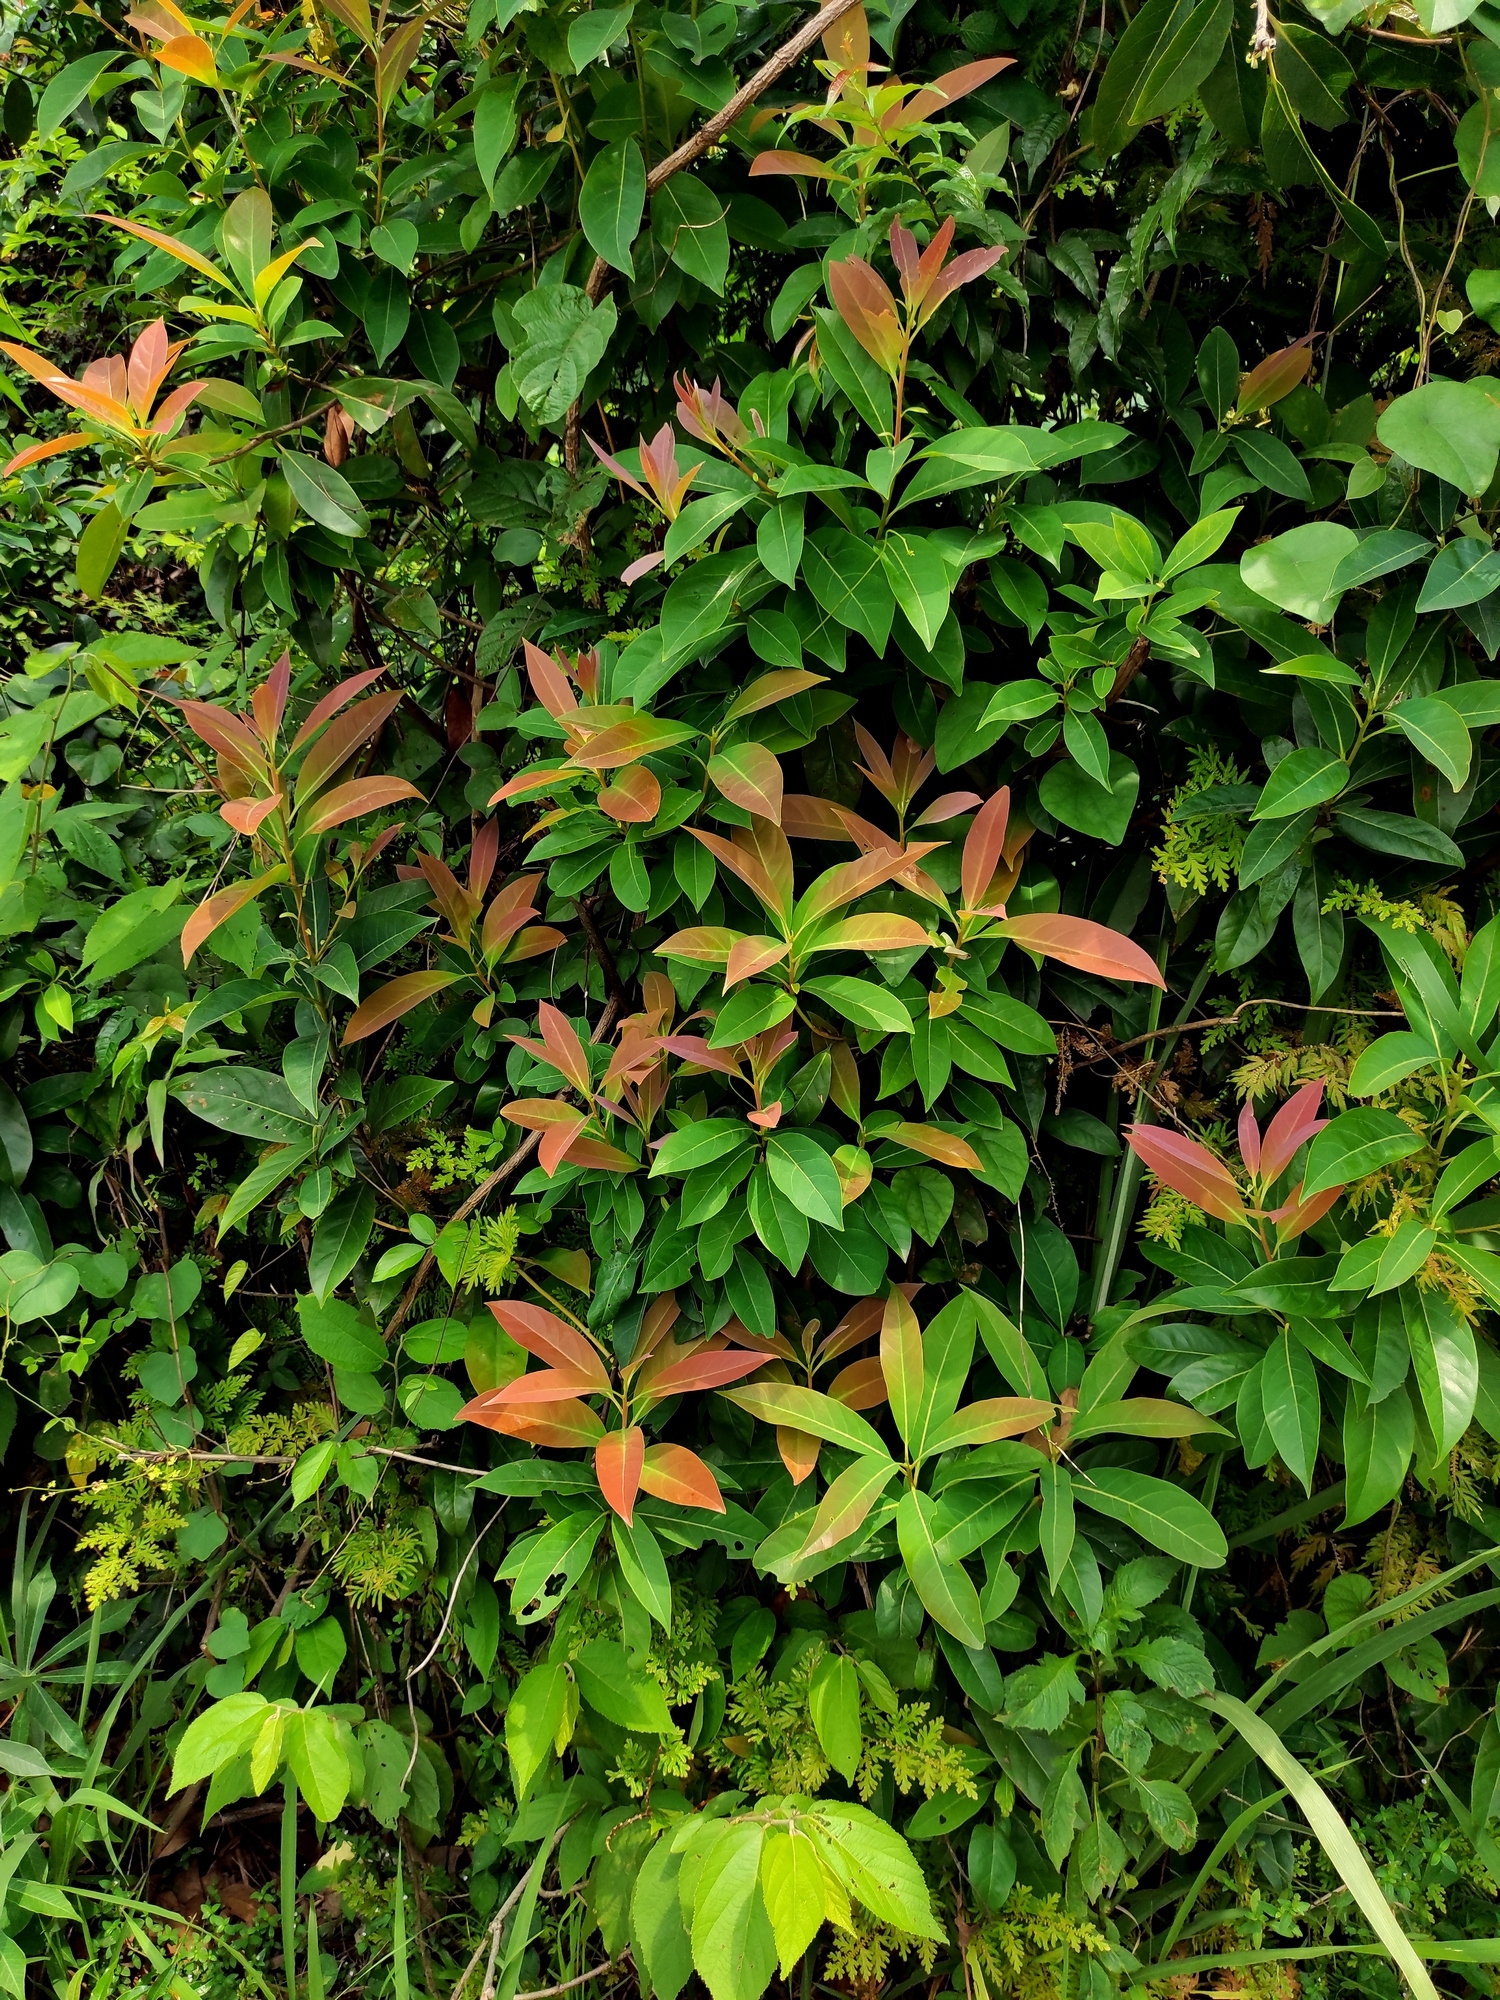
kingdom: Plantae
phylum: Tracheophyta
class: Magnoliopsida
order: Ericales
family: Theaceae
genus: Schima
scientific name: Schima wallichii
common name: Schima
